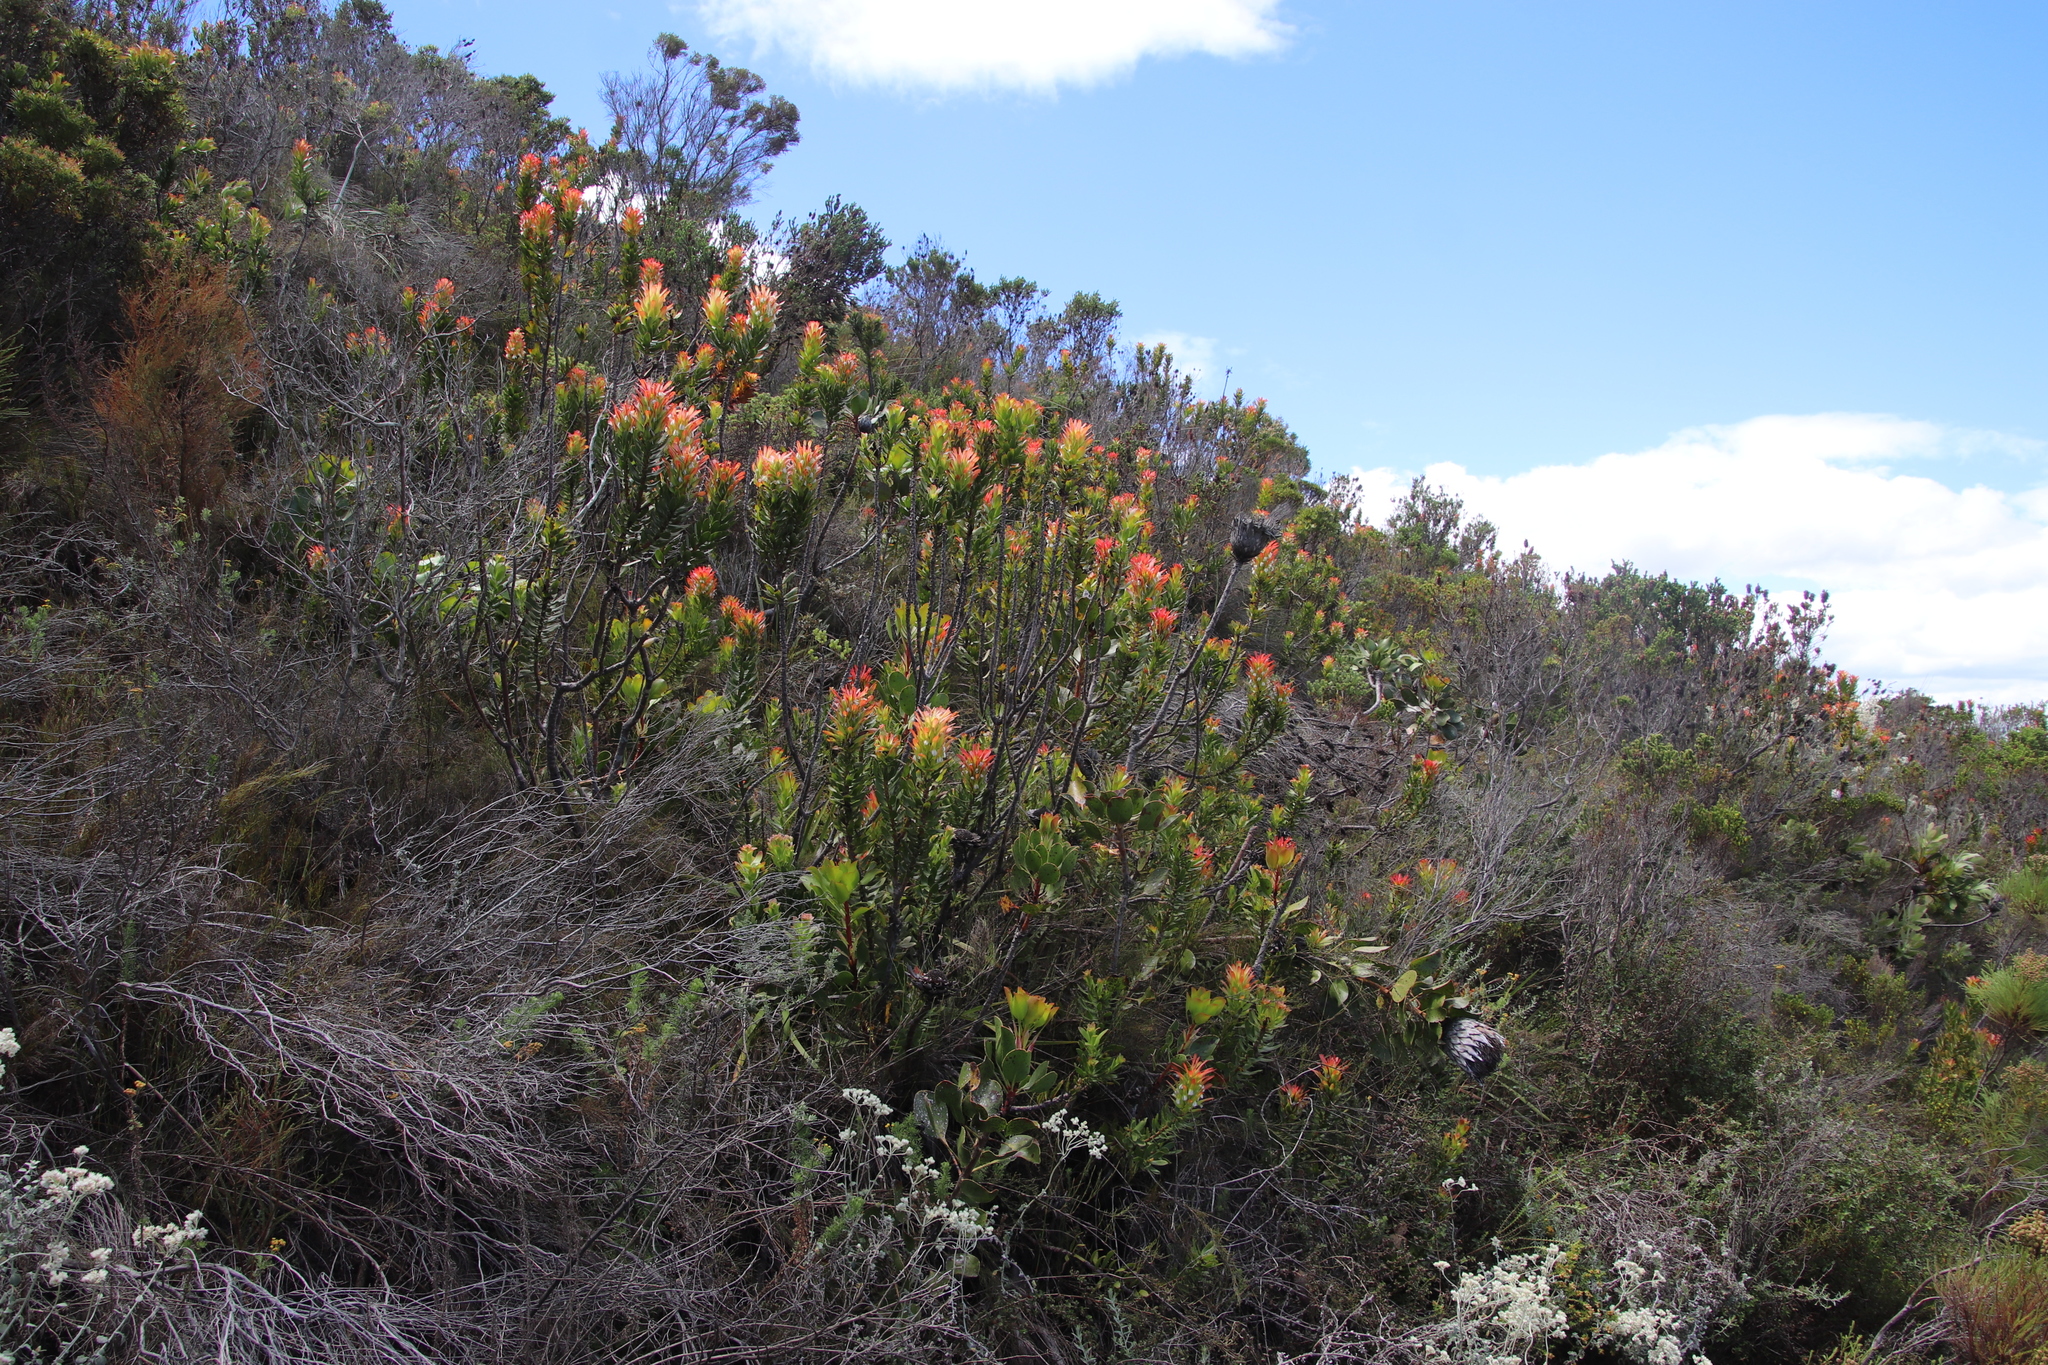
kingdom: Plantae
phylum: Tracheophyta
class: Magnoliopsida
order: Proteales
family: Proteaceae
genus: Mimetes
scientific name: Mimetes cucullatus
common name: Common pagoda
